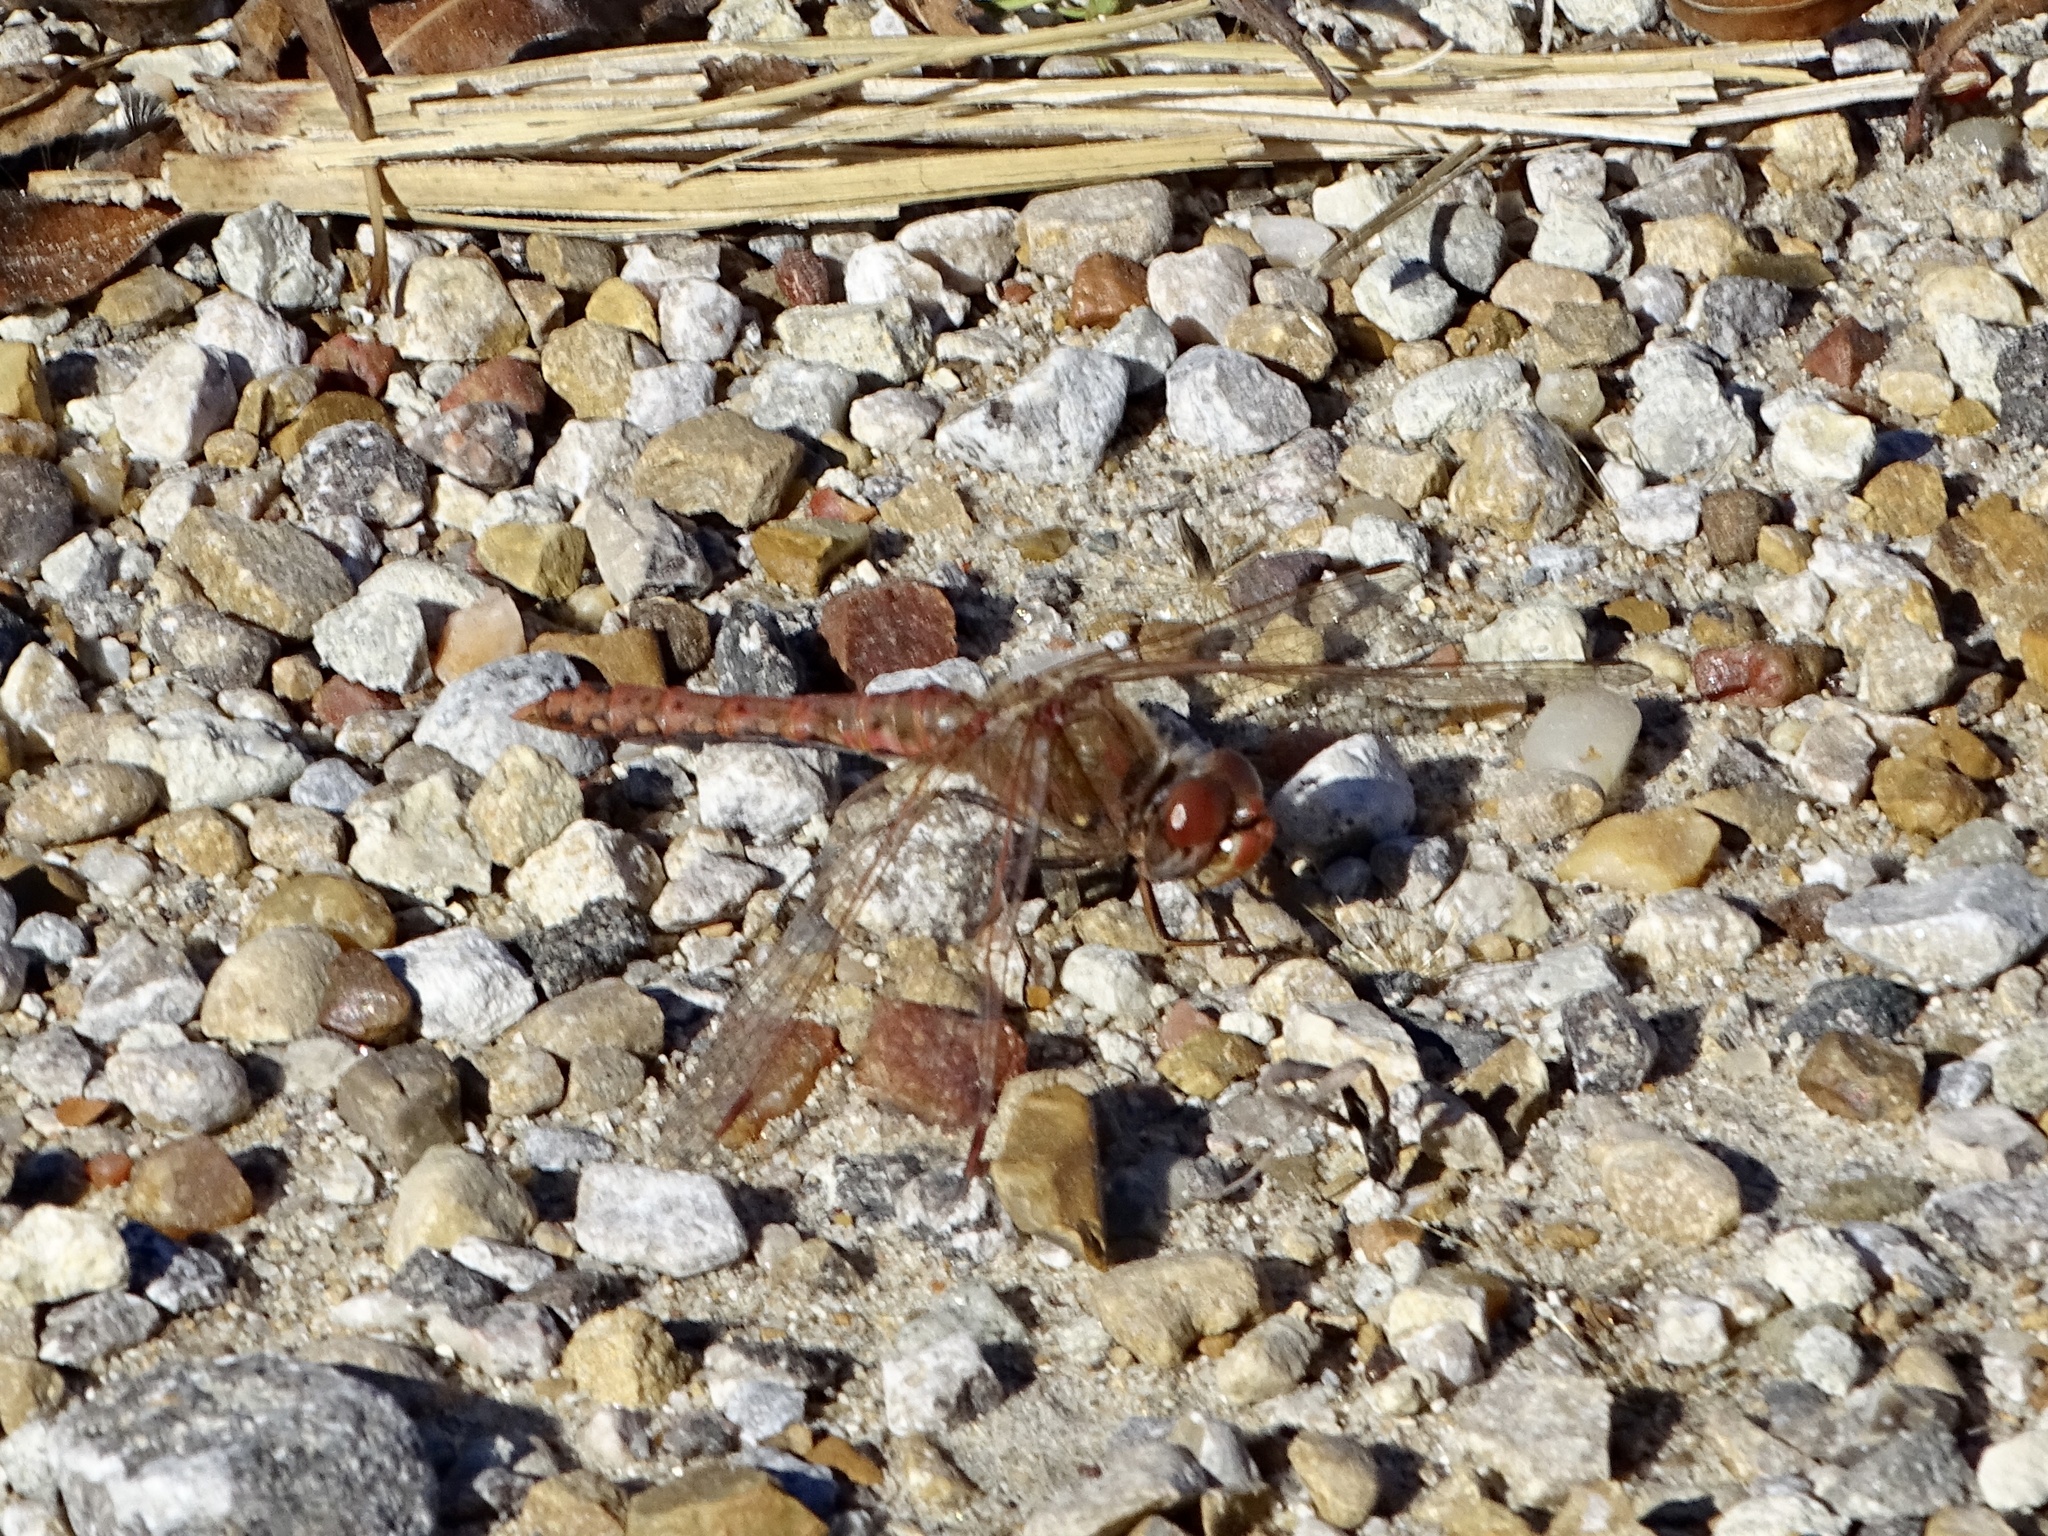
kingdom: Animalia
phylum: Arthropoda
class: Insecta
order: Odonata
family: Libellulidae
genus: Sympetrum
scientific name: Sympetrum corruptum
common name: Variegated meadowhawk
